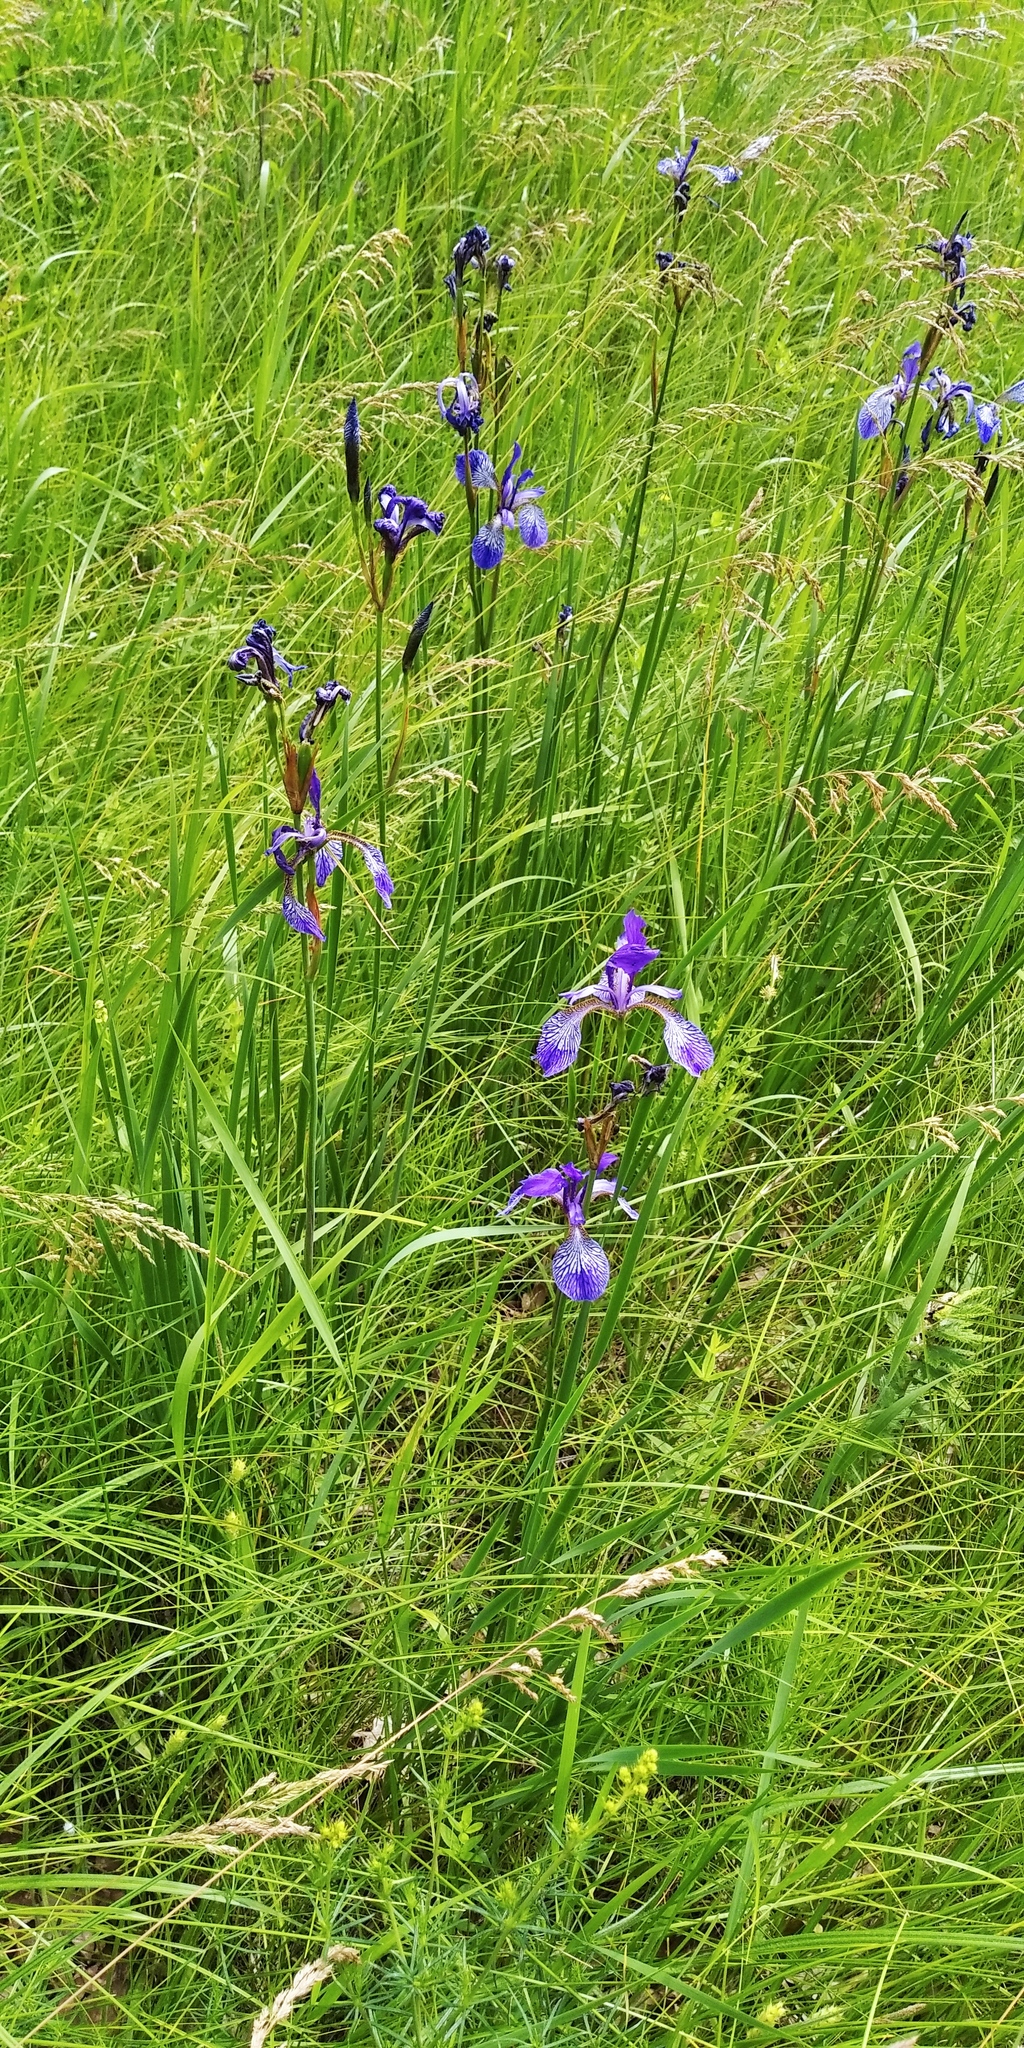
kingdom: Plantae
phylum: Tracheophyta
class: Liliopsida
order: Asparagales
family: Iridaceae
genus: Iris
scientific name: Iris sibirica
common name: Siberian iris
